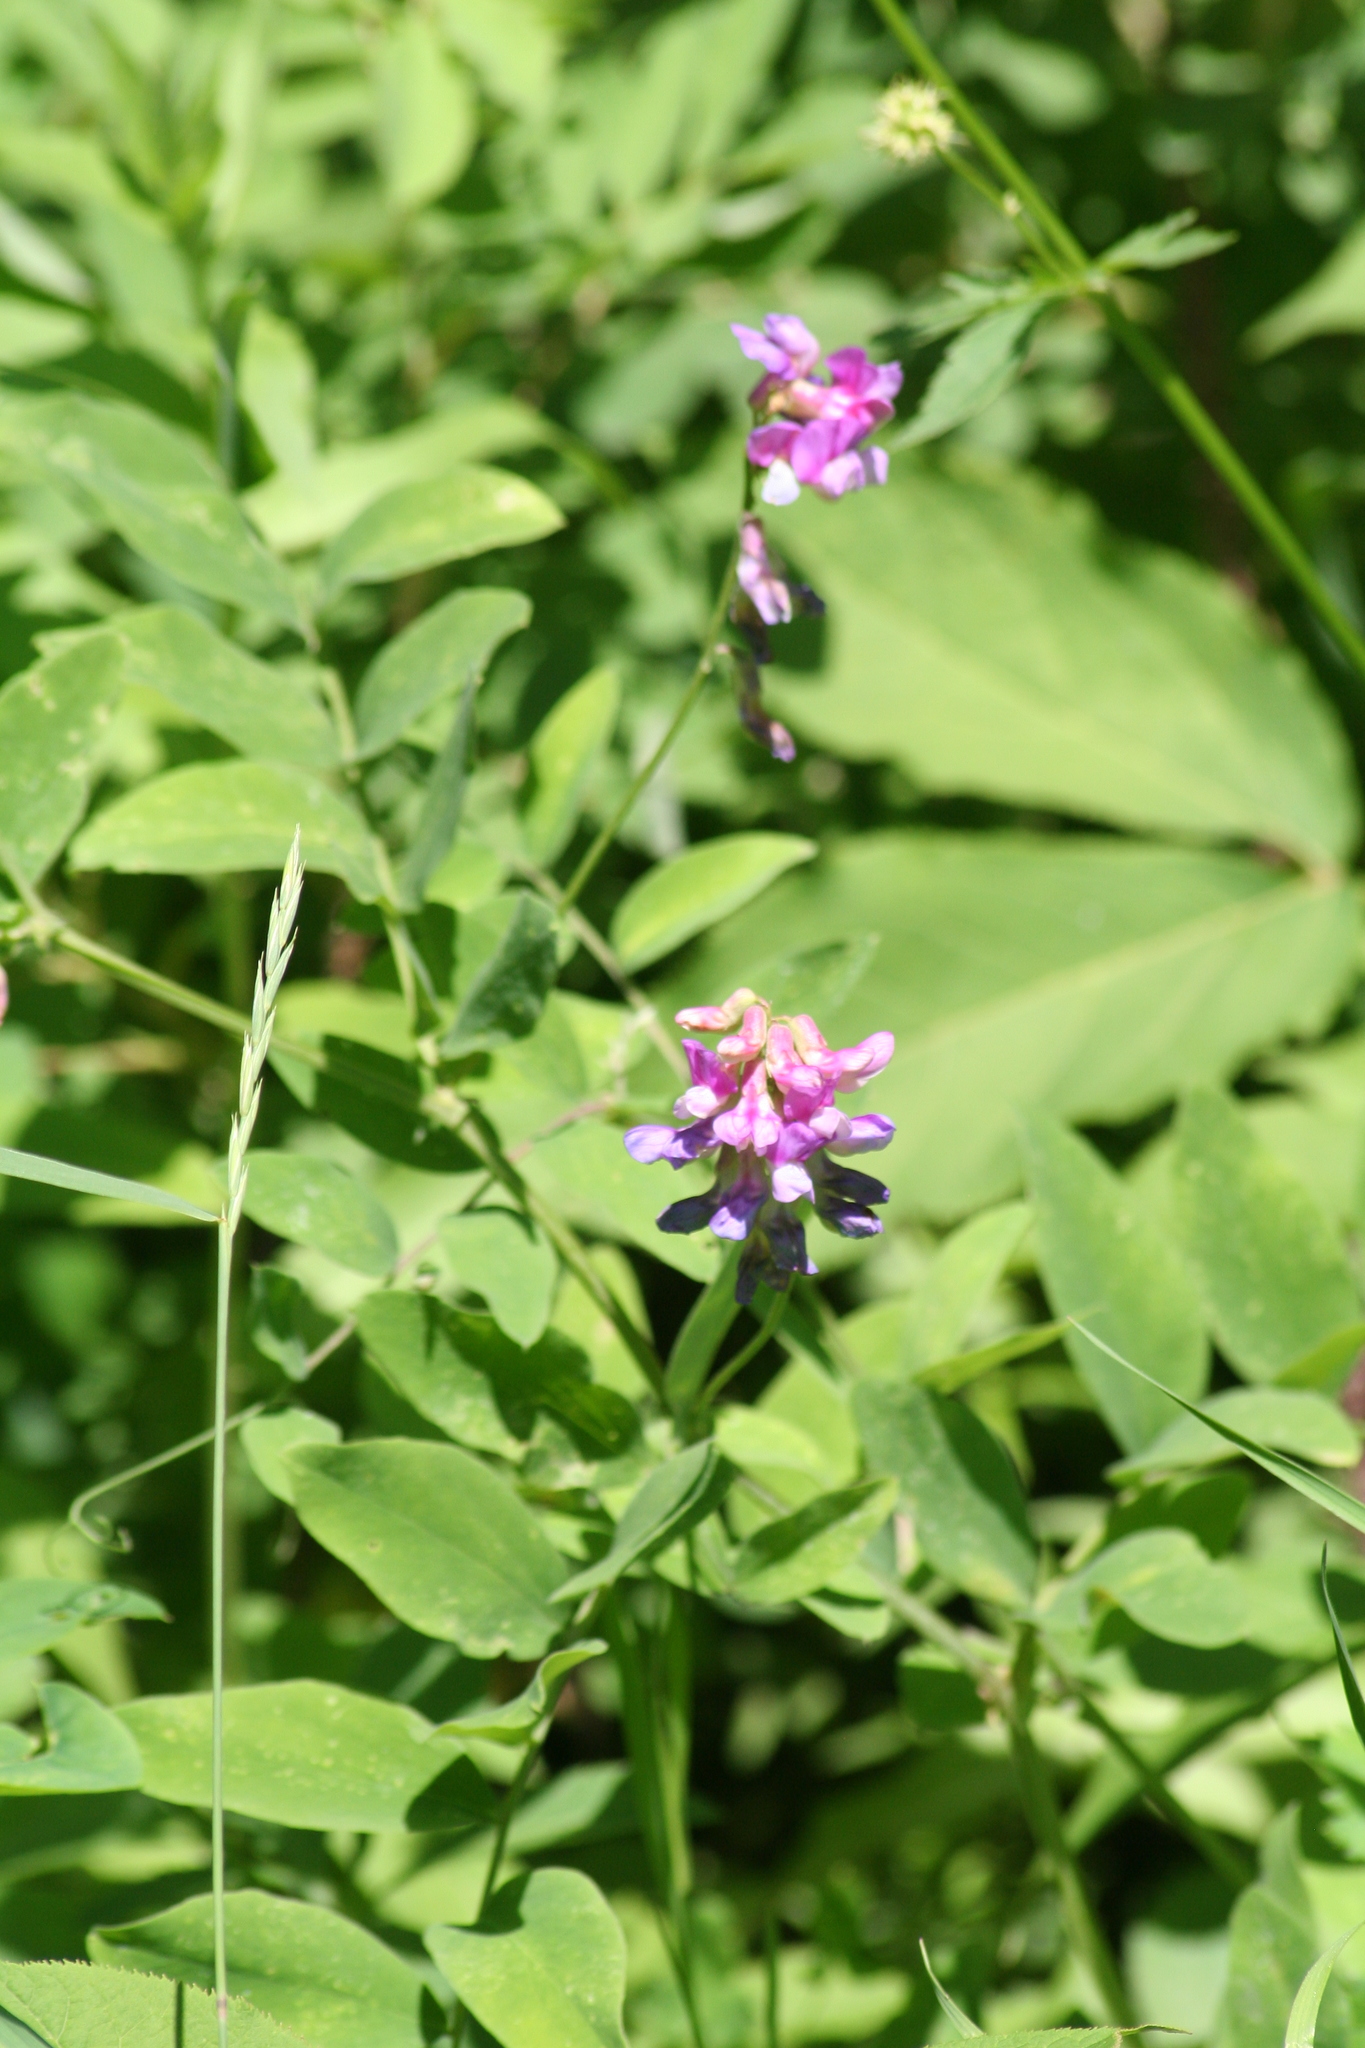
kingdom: Plantae
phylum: Tracheophyta
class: Magnoliopsida
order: Fabales
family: Fabaceae
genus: Lathyrus
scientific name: Lathyrus venosus
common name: Forest-pea
